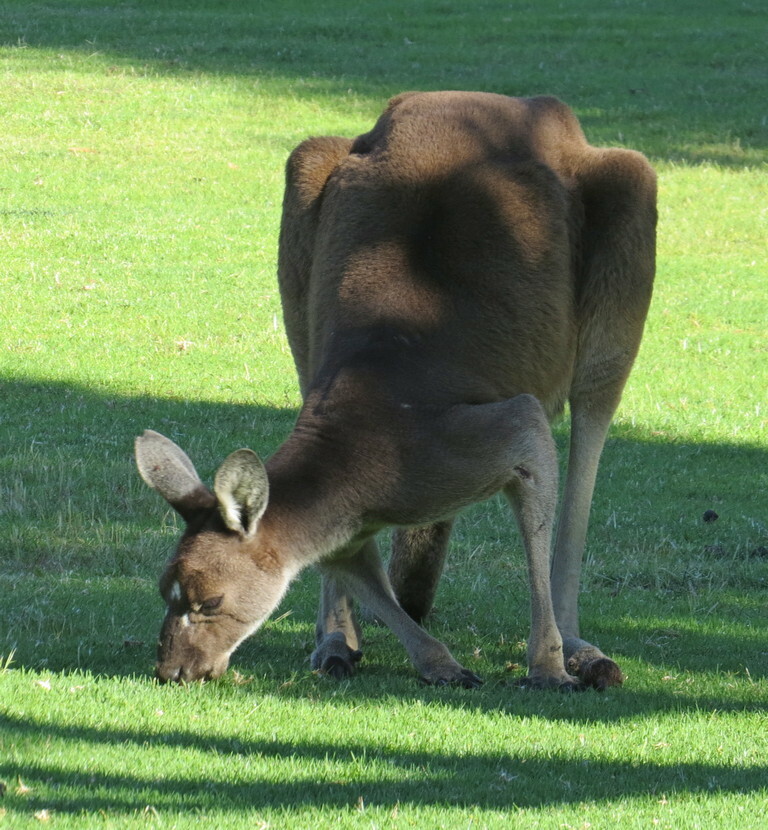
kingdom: Animalia
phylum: Chordata
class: Mammalia
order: Diprotodontia
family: Macropodidae
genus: Macropus
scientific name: Macropus fuliginosus
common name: Western grey kangaroo
